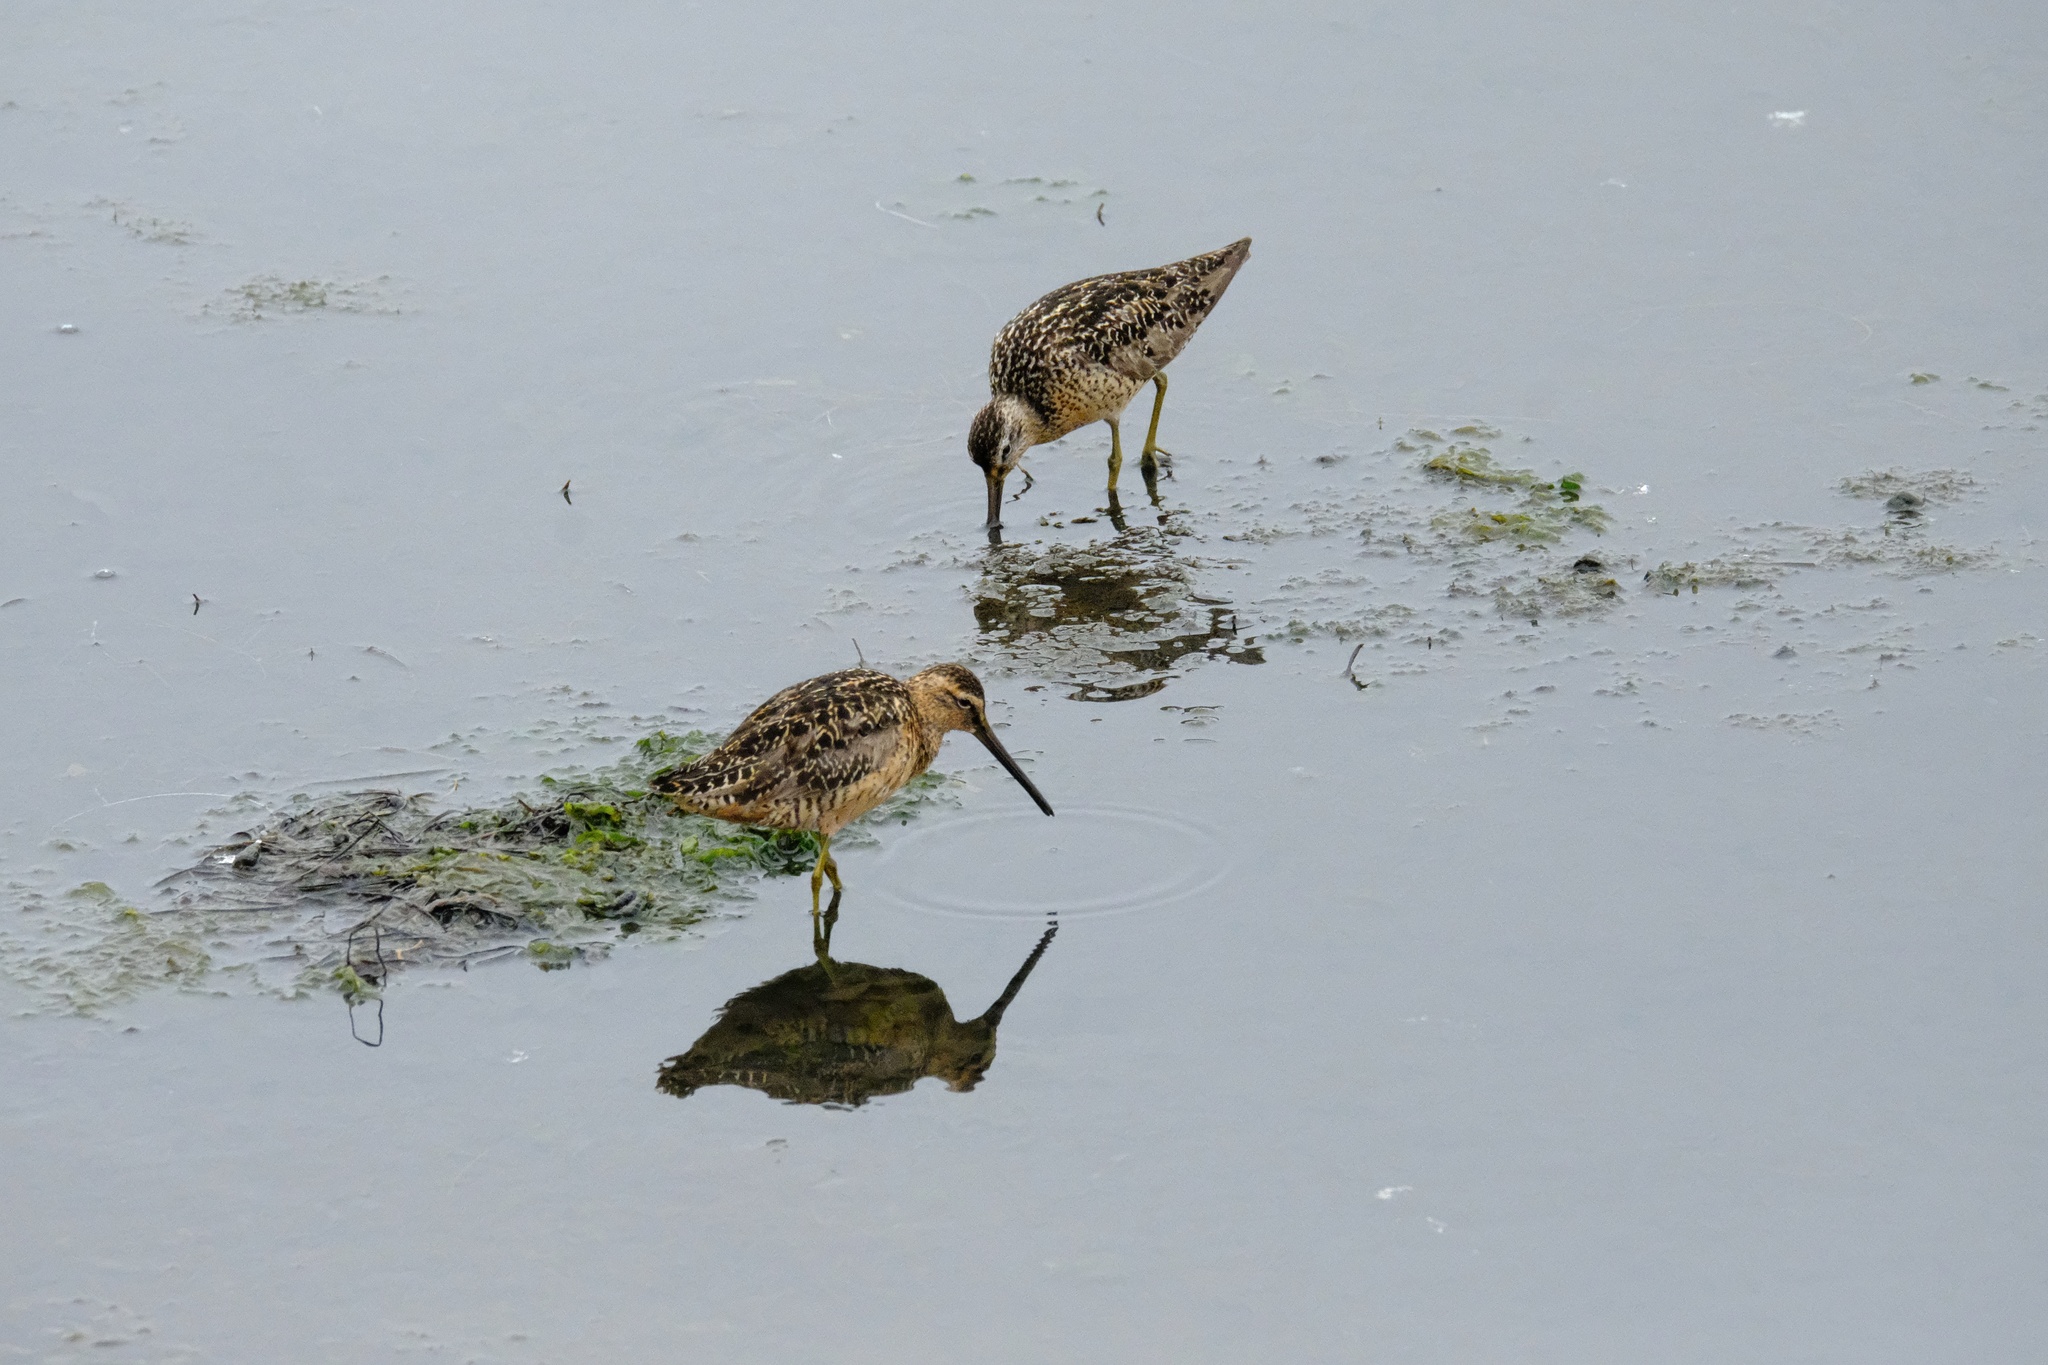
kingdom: Animalia
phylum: Chordata
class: Aves
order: Charadriiformes
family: Scolopacidae
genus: Limnodromus
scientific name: Limnodromus griseus
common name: Short-billed dowitcher
